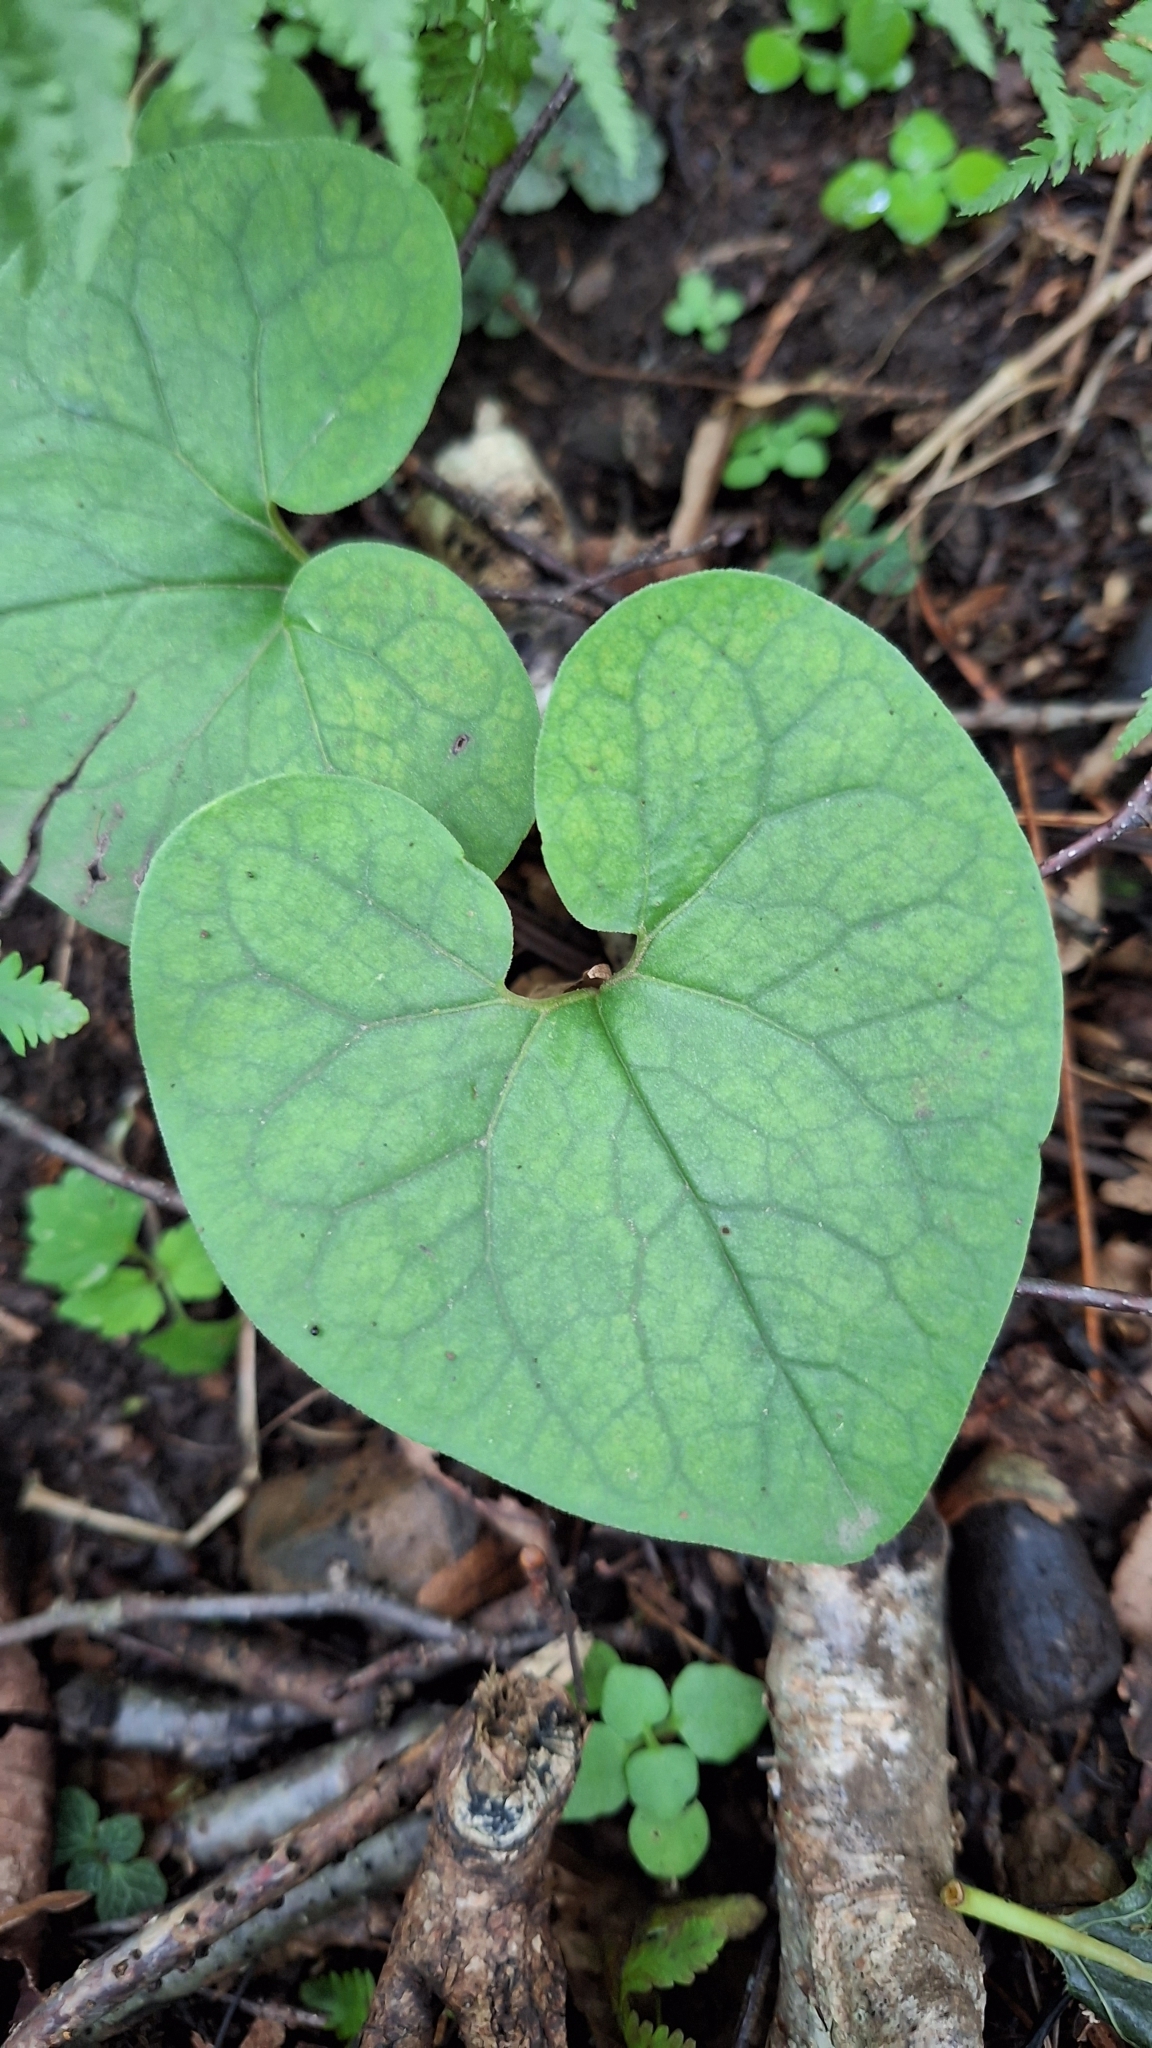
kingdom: Plantae
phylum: Tracheophyta
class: Magnoliopsida
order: Piperales
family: Aristolochiaceae
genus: Asarum
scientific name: Asarum sieboldii
